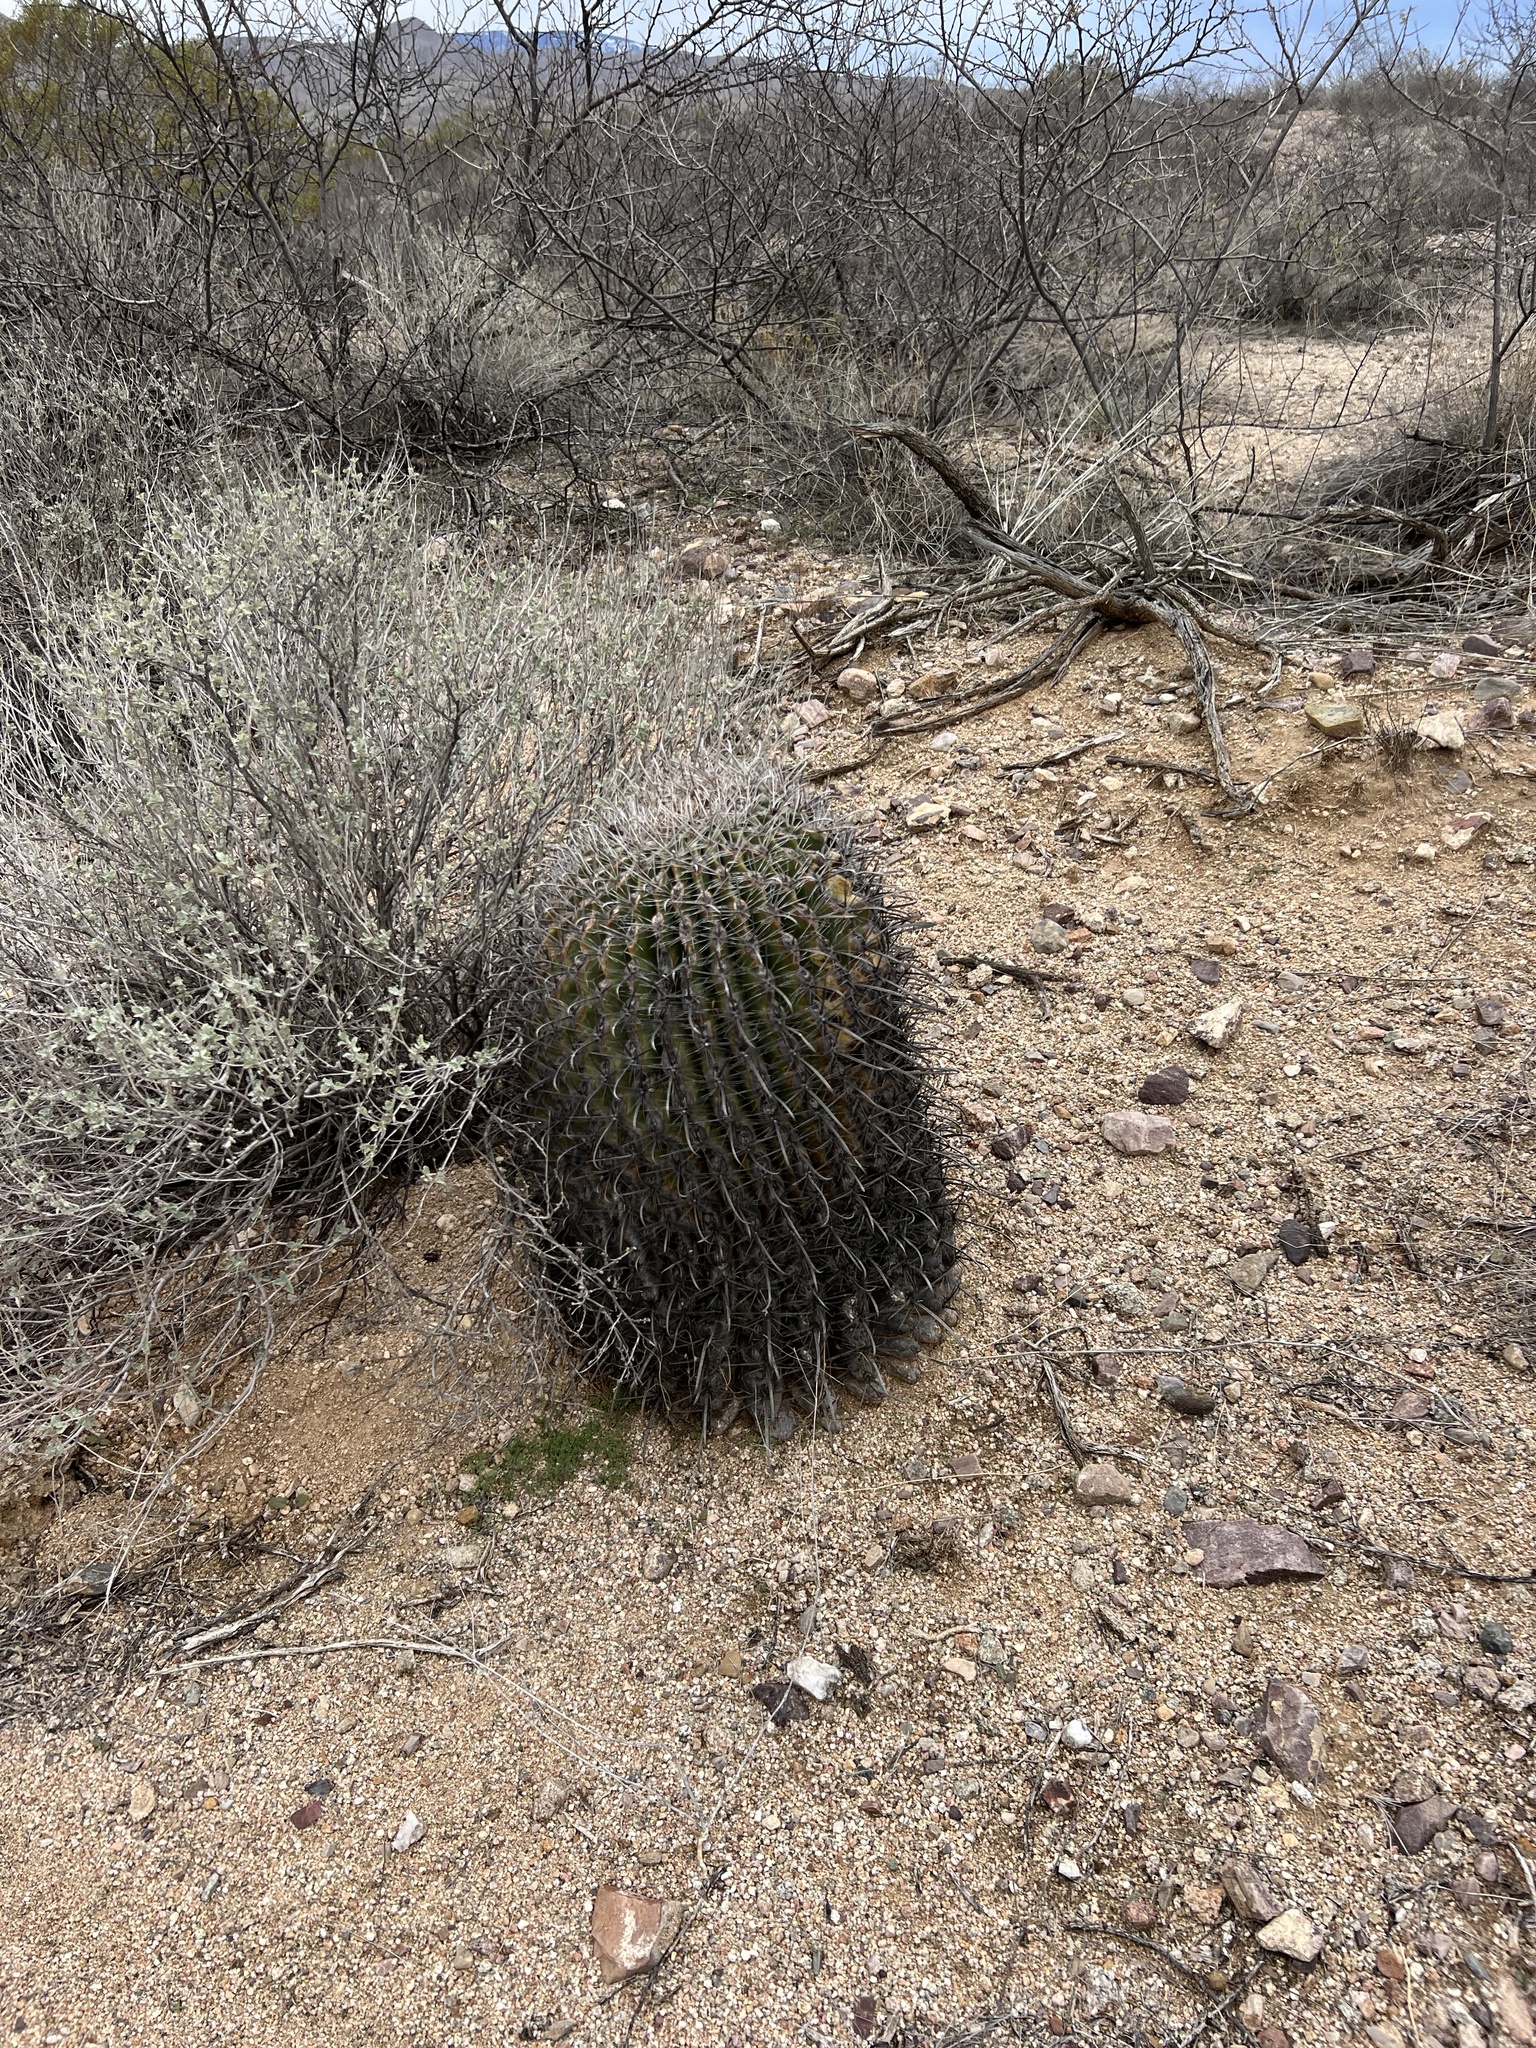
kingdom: Plantae
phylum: Tracheophyta
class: Magnoliopsida
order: Caryophyllales
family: Cactaceae
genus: Ferocactus
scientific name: Ferocactus wislizeni
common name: Candy barrel cactus
